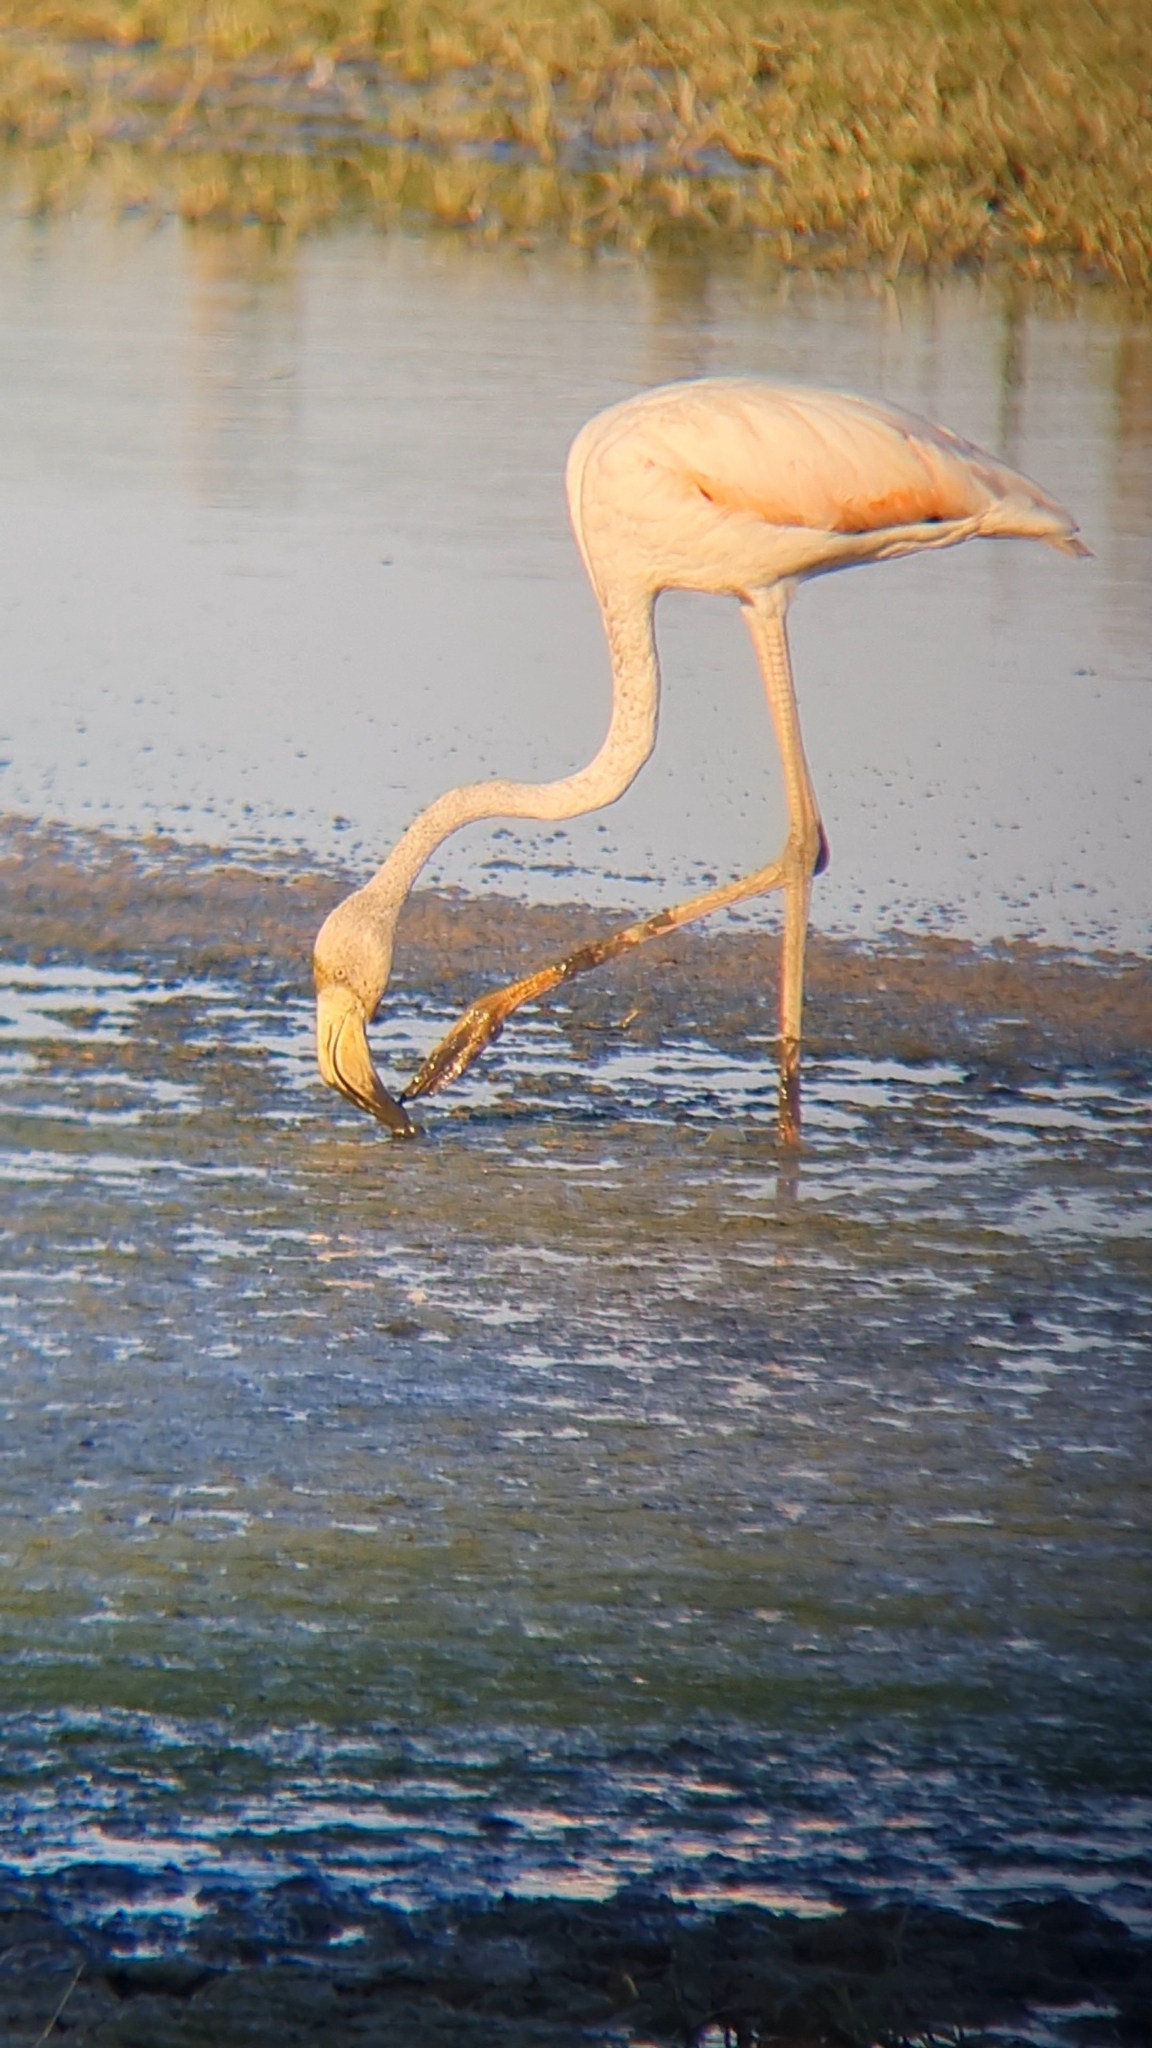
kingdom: Animalia
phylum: Chordata
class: Aves
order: Phoenicopteriformes
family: Phoenicopteridae
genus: Phoenicopterus
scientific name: Phoenicopterus roseus
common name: Greater flamingo
